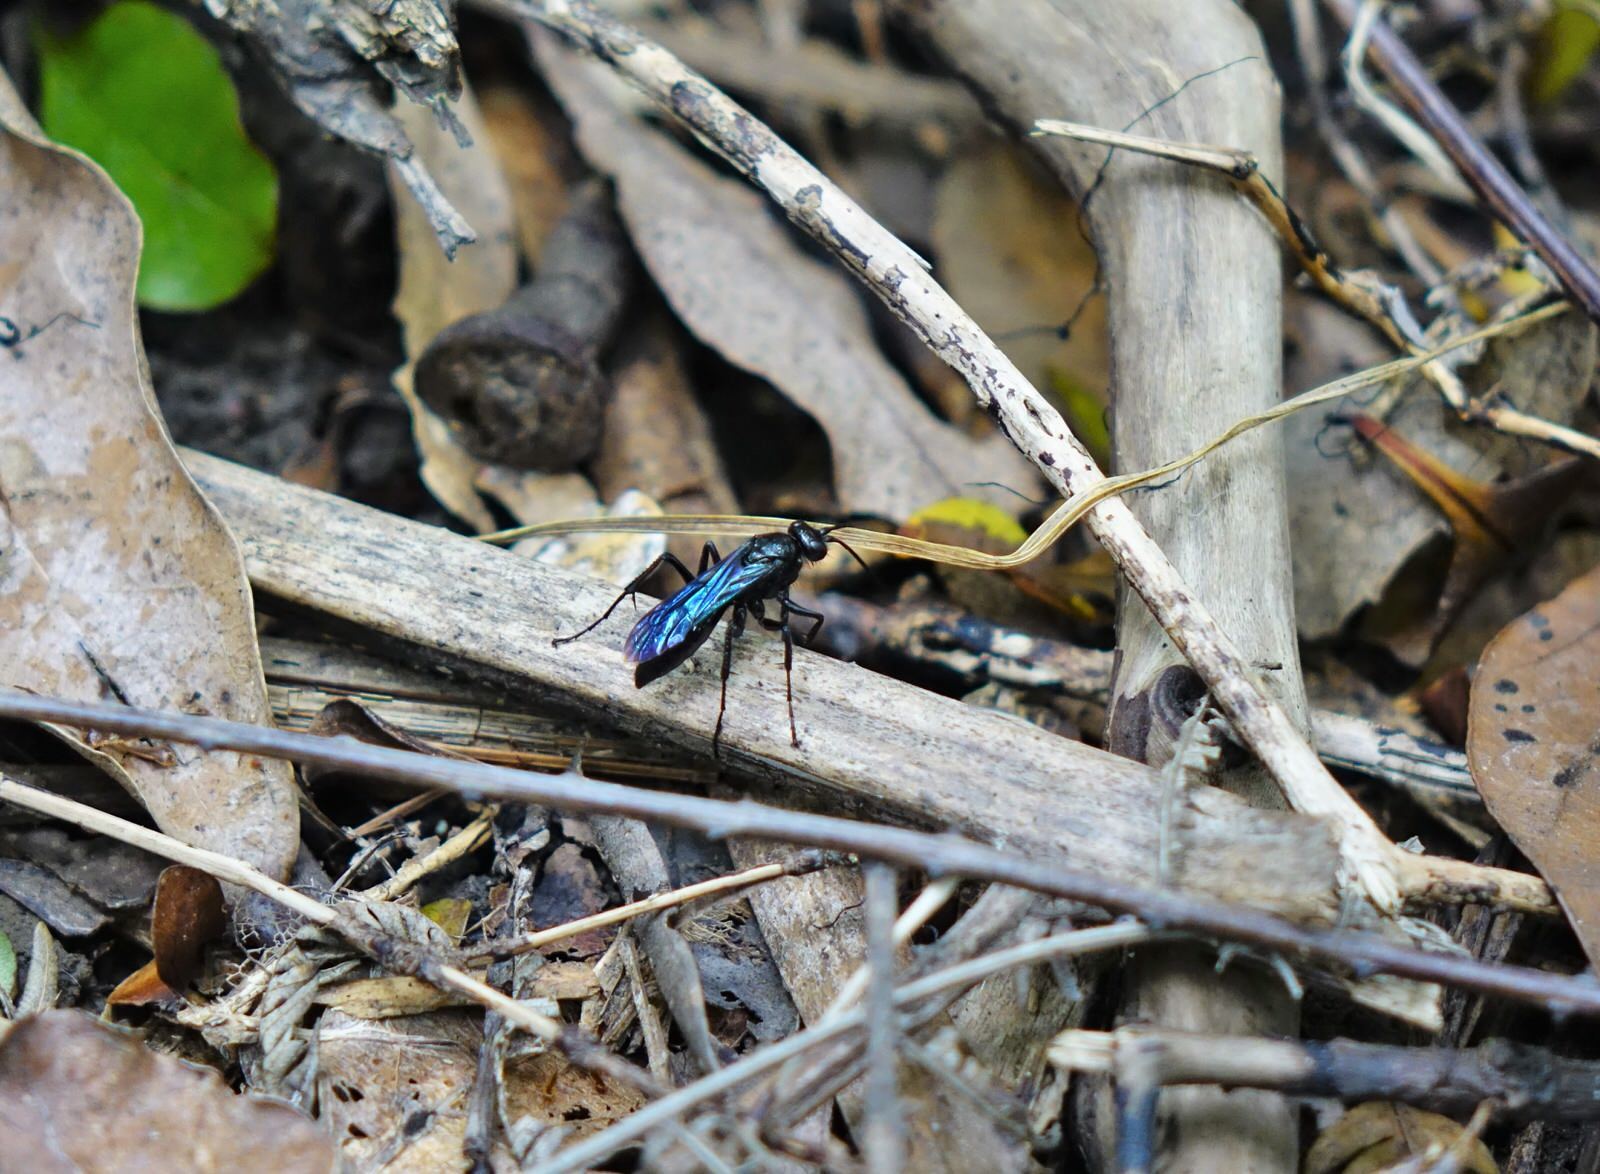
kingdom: Animalia
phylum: Arthropoda
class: Insecta
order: Hymenoptera
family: Pompilidae
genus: Priocnemis
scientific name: Priocnemis monachus
